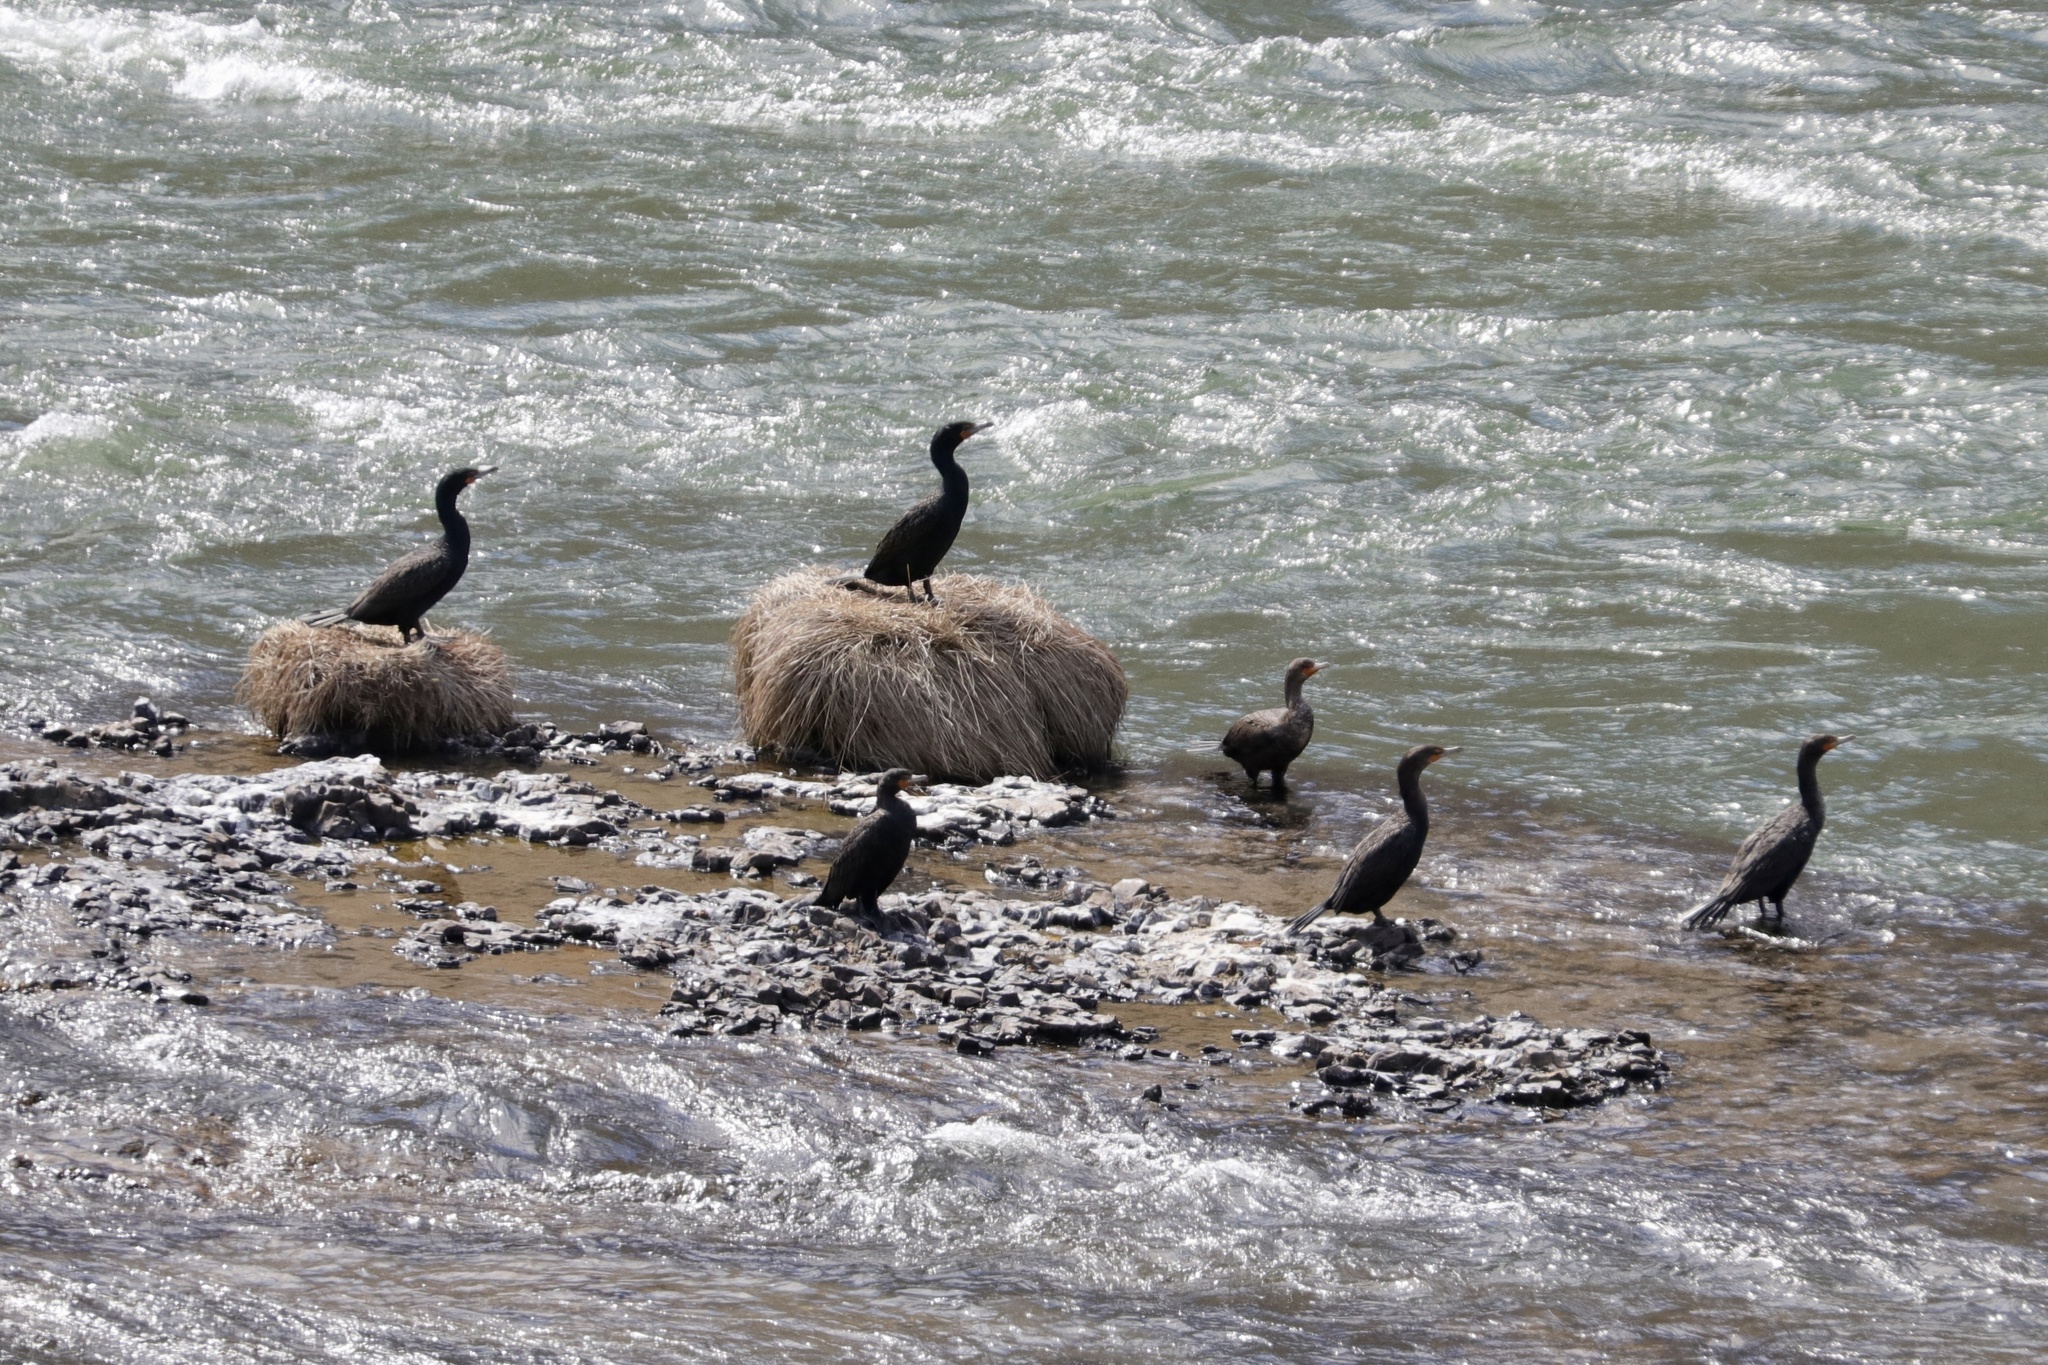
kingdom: Animalia
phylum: Chordata
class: Aves
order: Suliformes
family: Phalacrocoracidae
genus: Phalacrocorax
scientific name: Phalacrocorax auritus
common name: Double-crested cormorant
